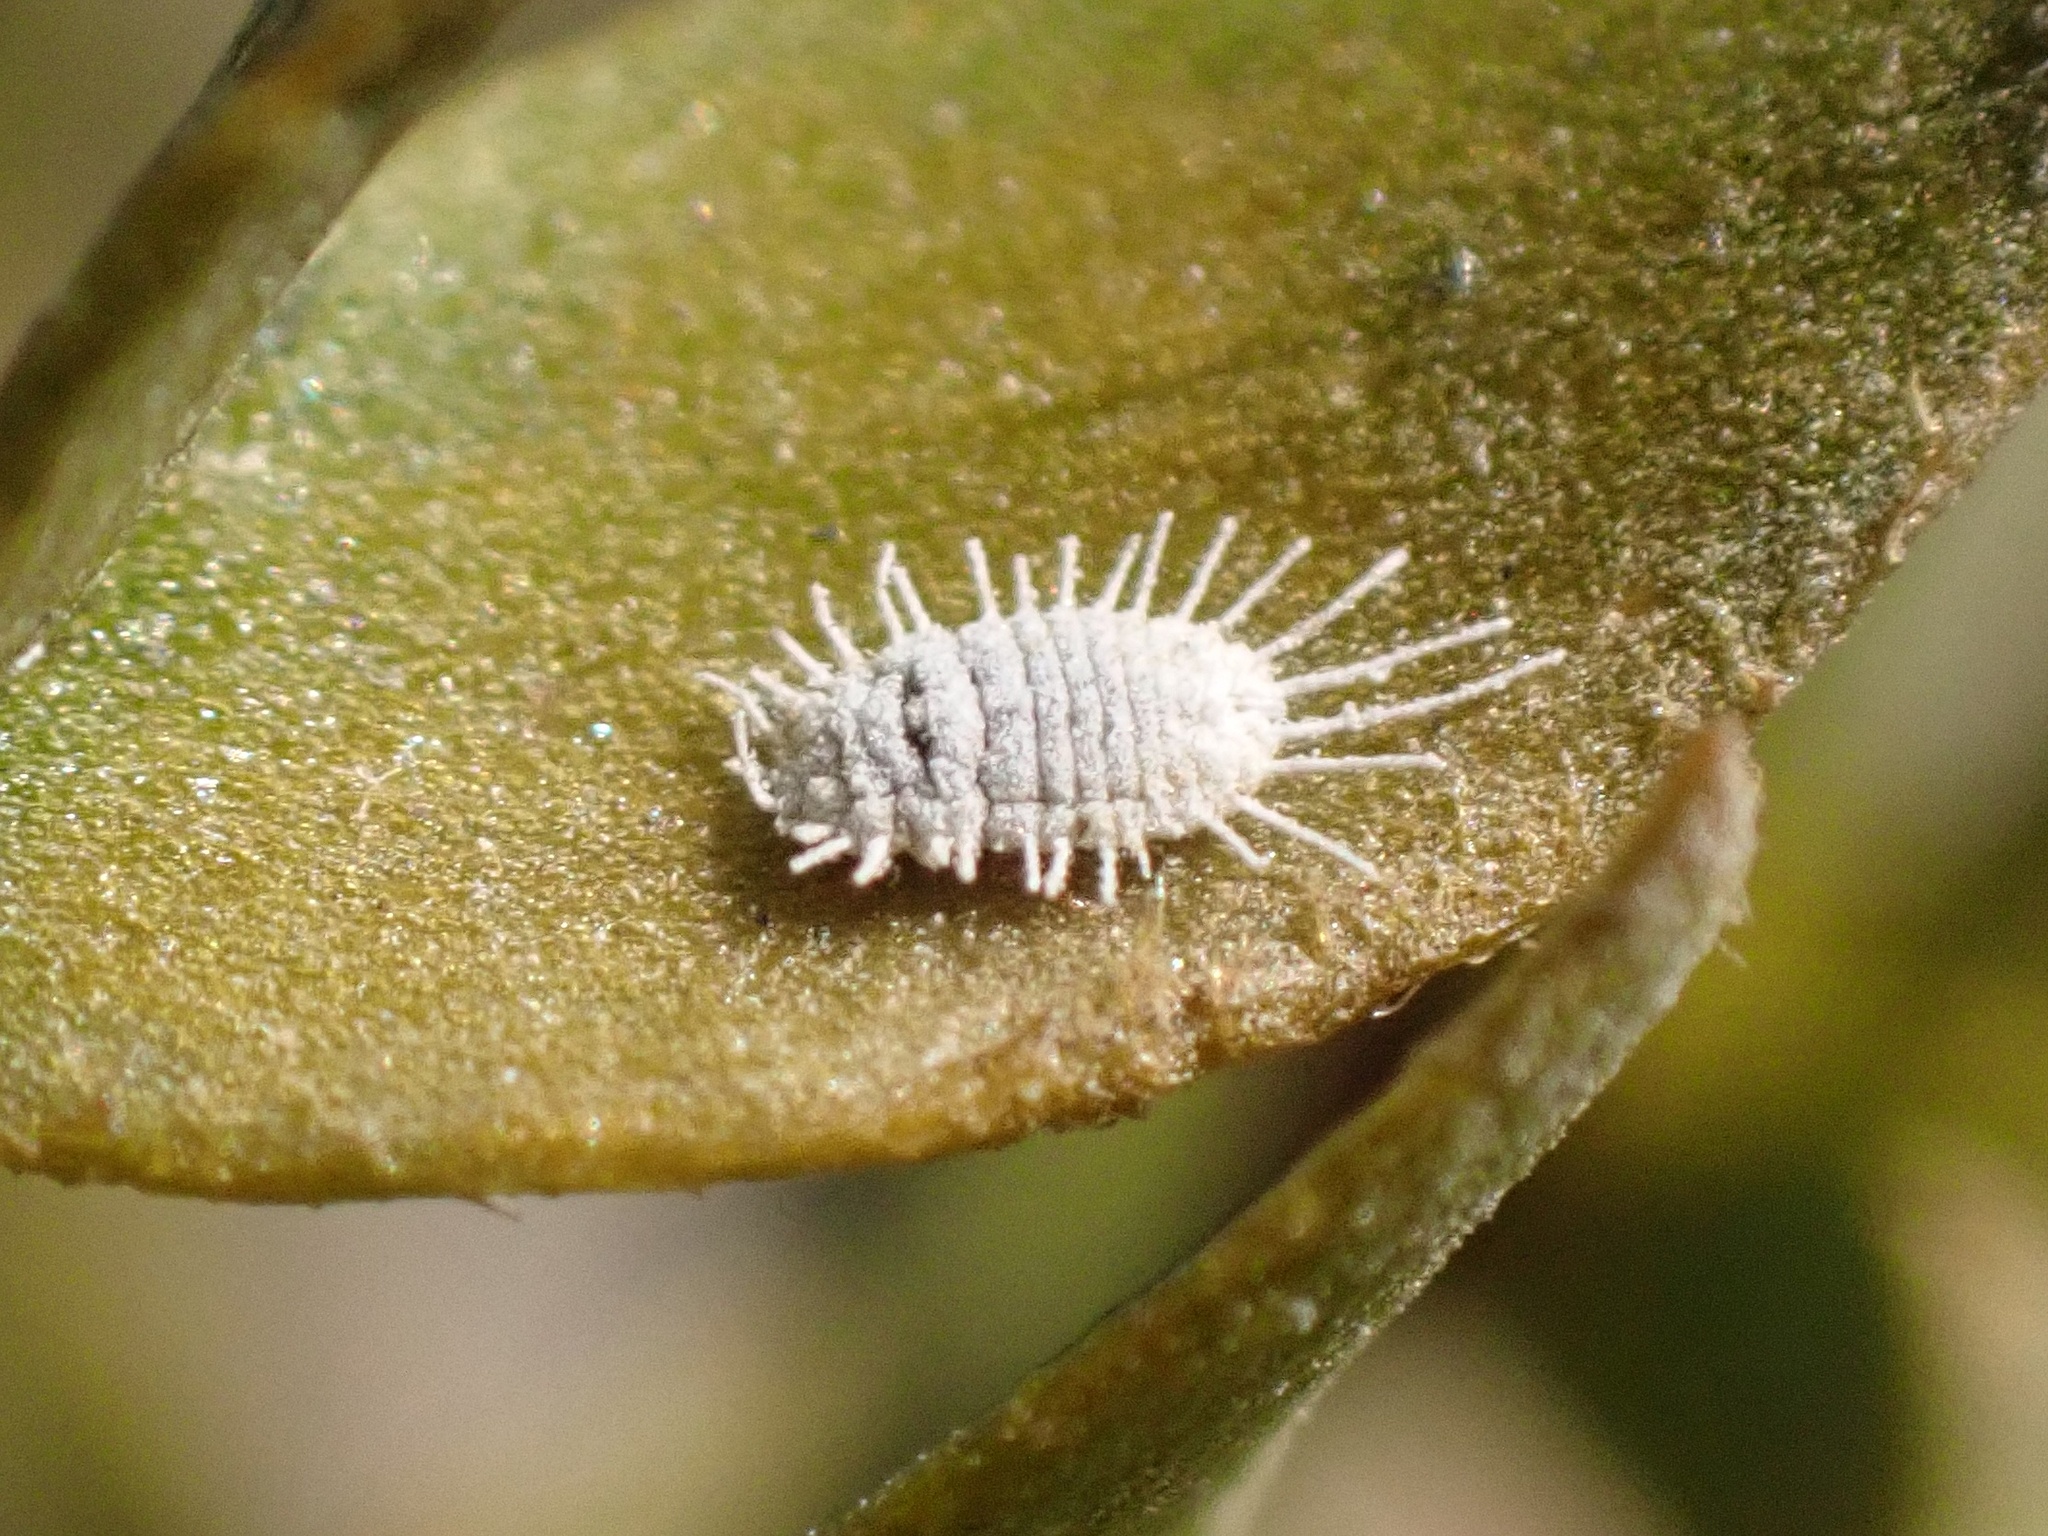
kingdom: Animalia
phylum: Arthropoda
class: Insecta
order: Hemiptera
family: Pseudococcidae
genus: Spilococcus
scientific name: Spilococcus larreae
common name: Desert mealybug
